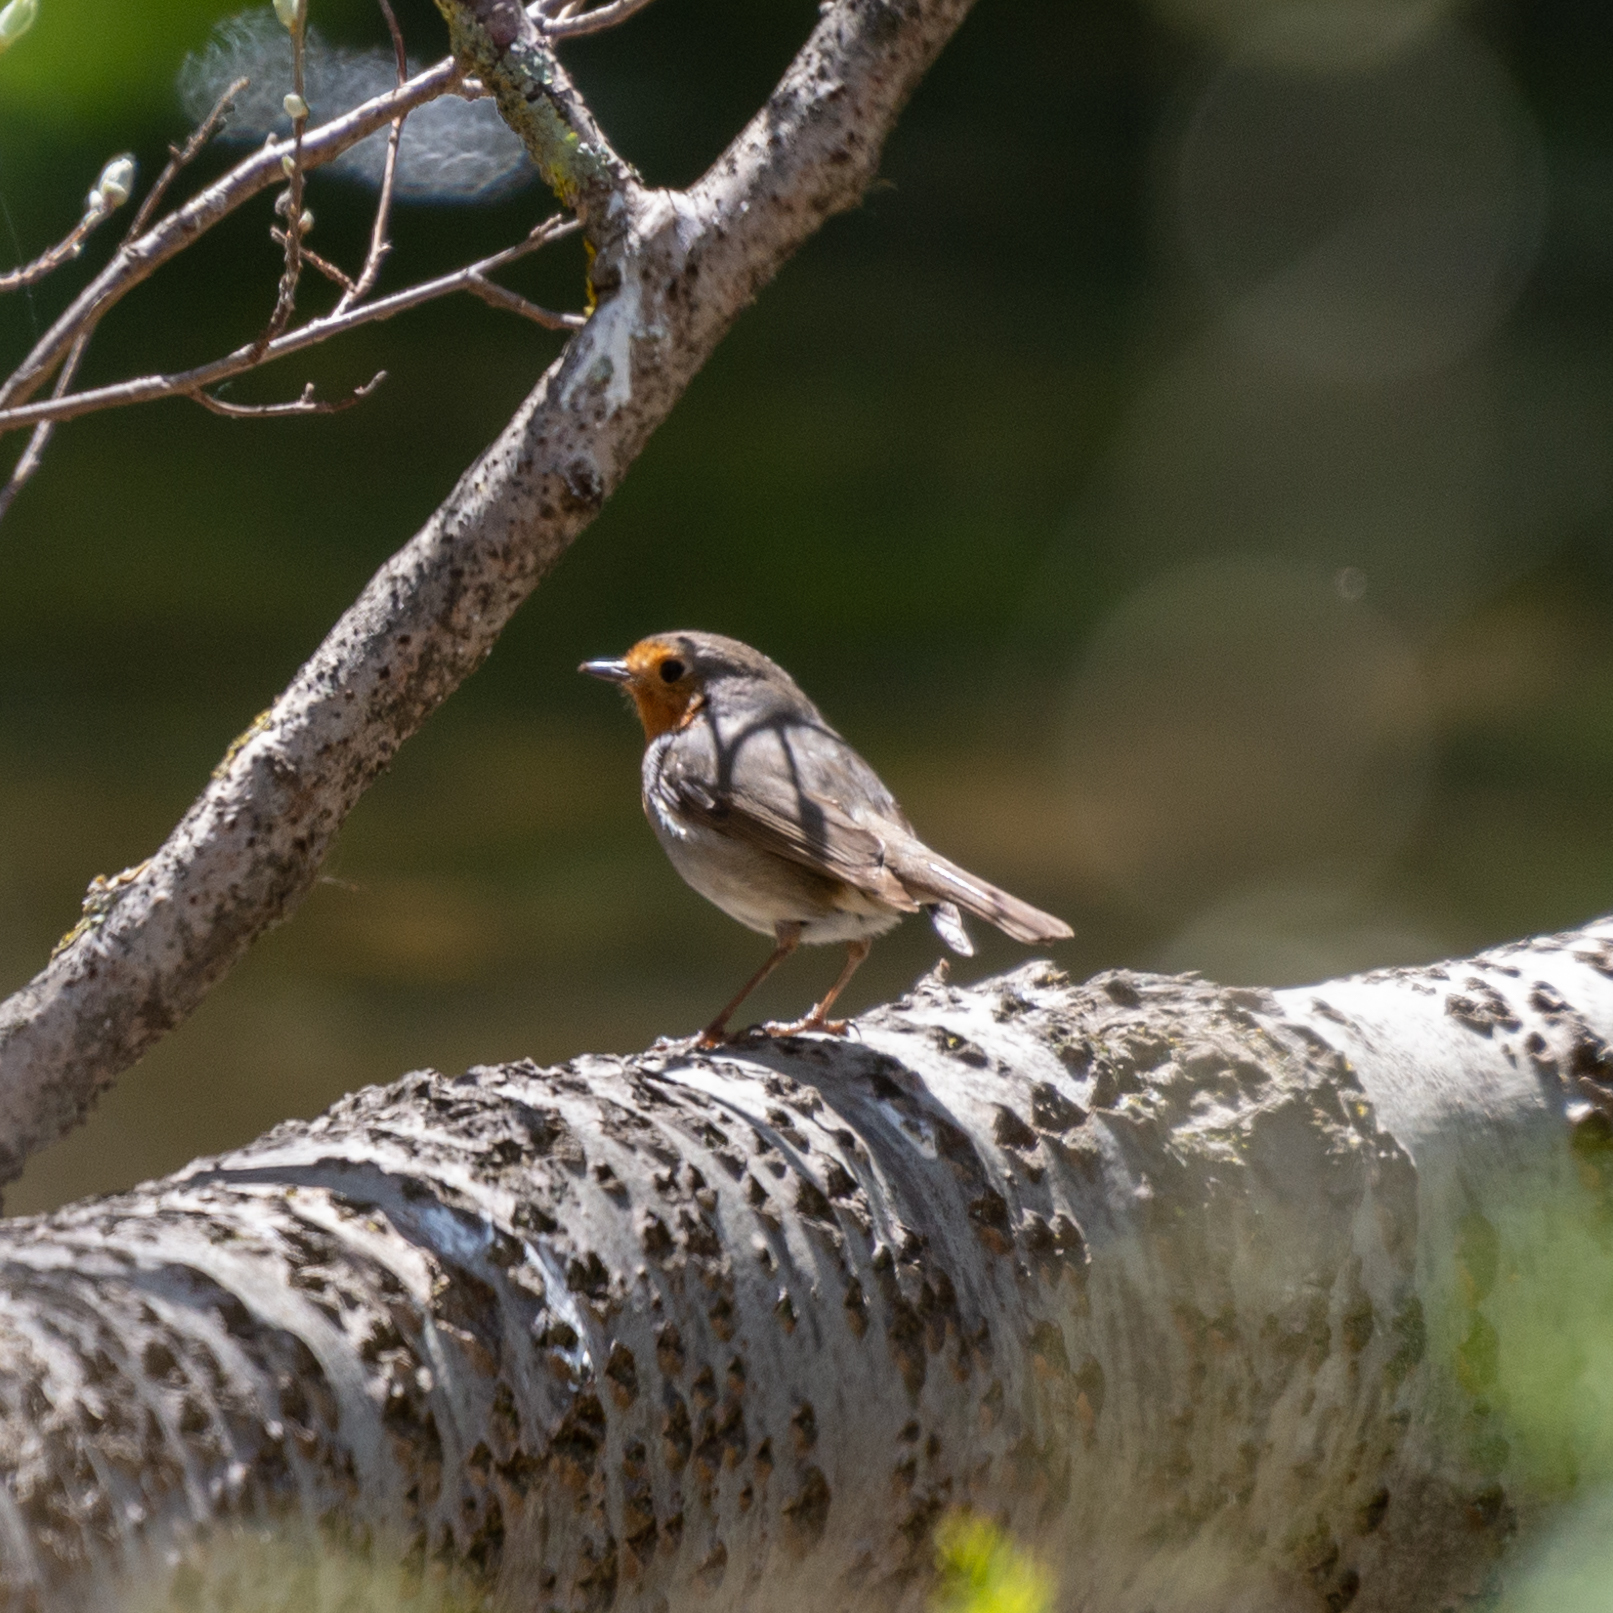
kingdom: Animalia
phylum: Chordata
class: Aves
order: Passeriformes
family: Muscicapidae
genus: Erithacus
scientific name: Erithacus rubecula
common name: European robin
